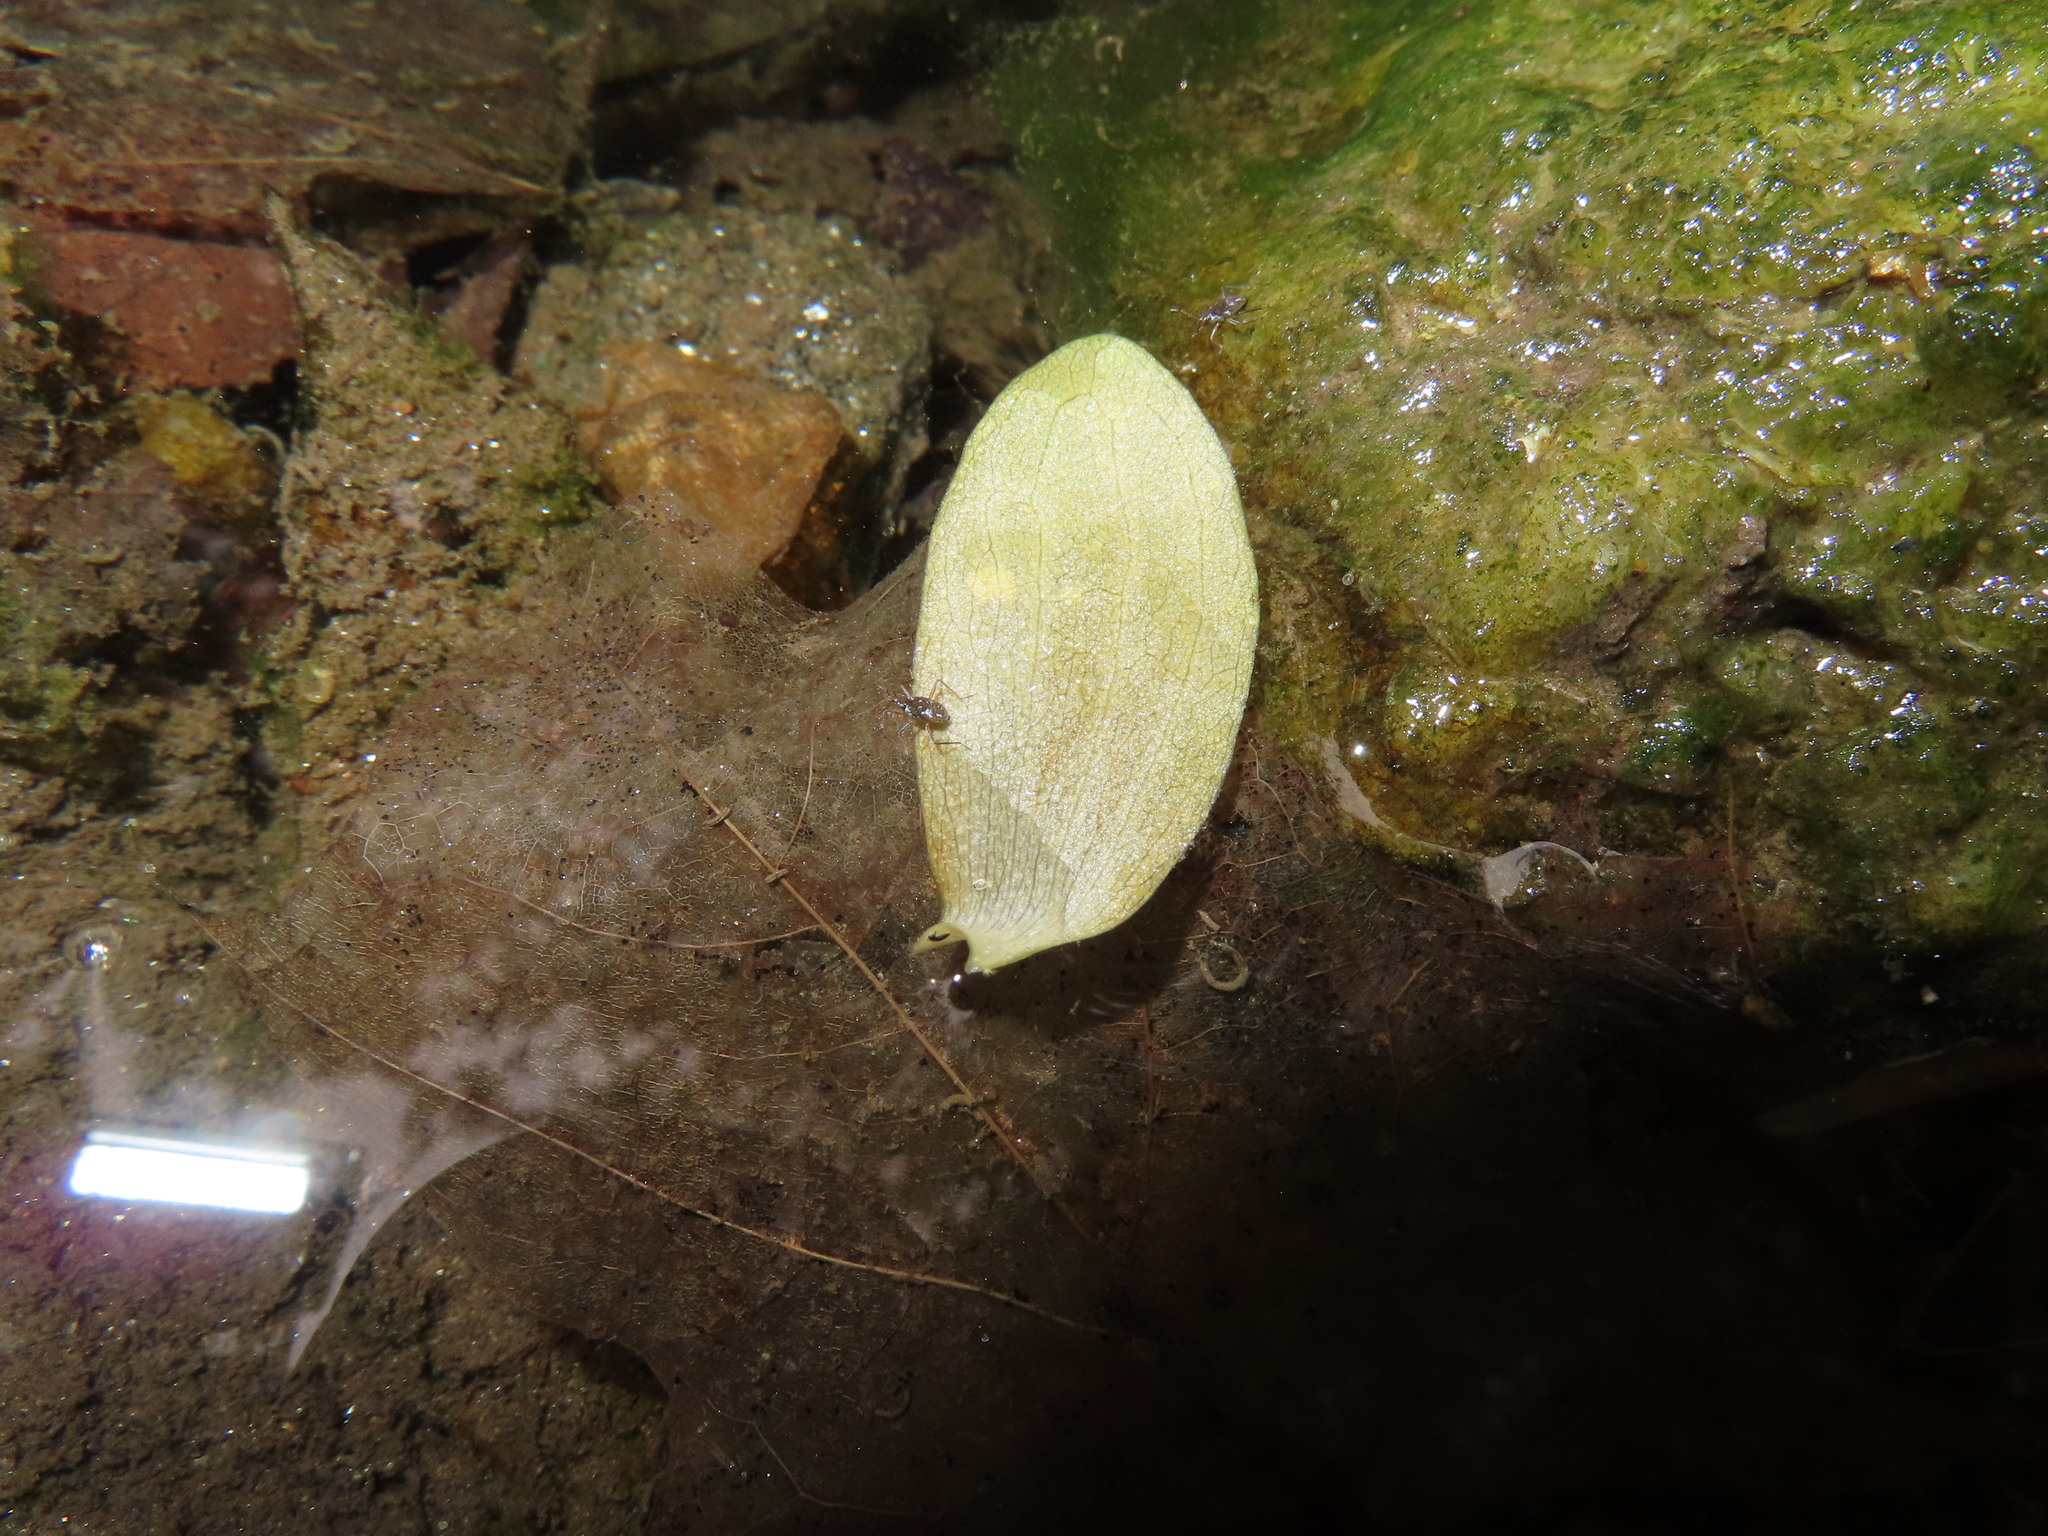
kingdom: Animalia
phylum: Arthropoda
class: Insecta
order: Hemiptera
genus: Kirkaldya
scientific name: Kirkaldya
